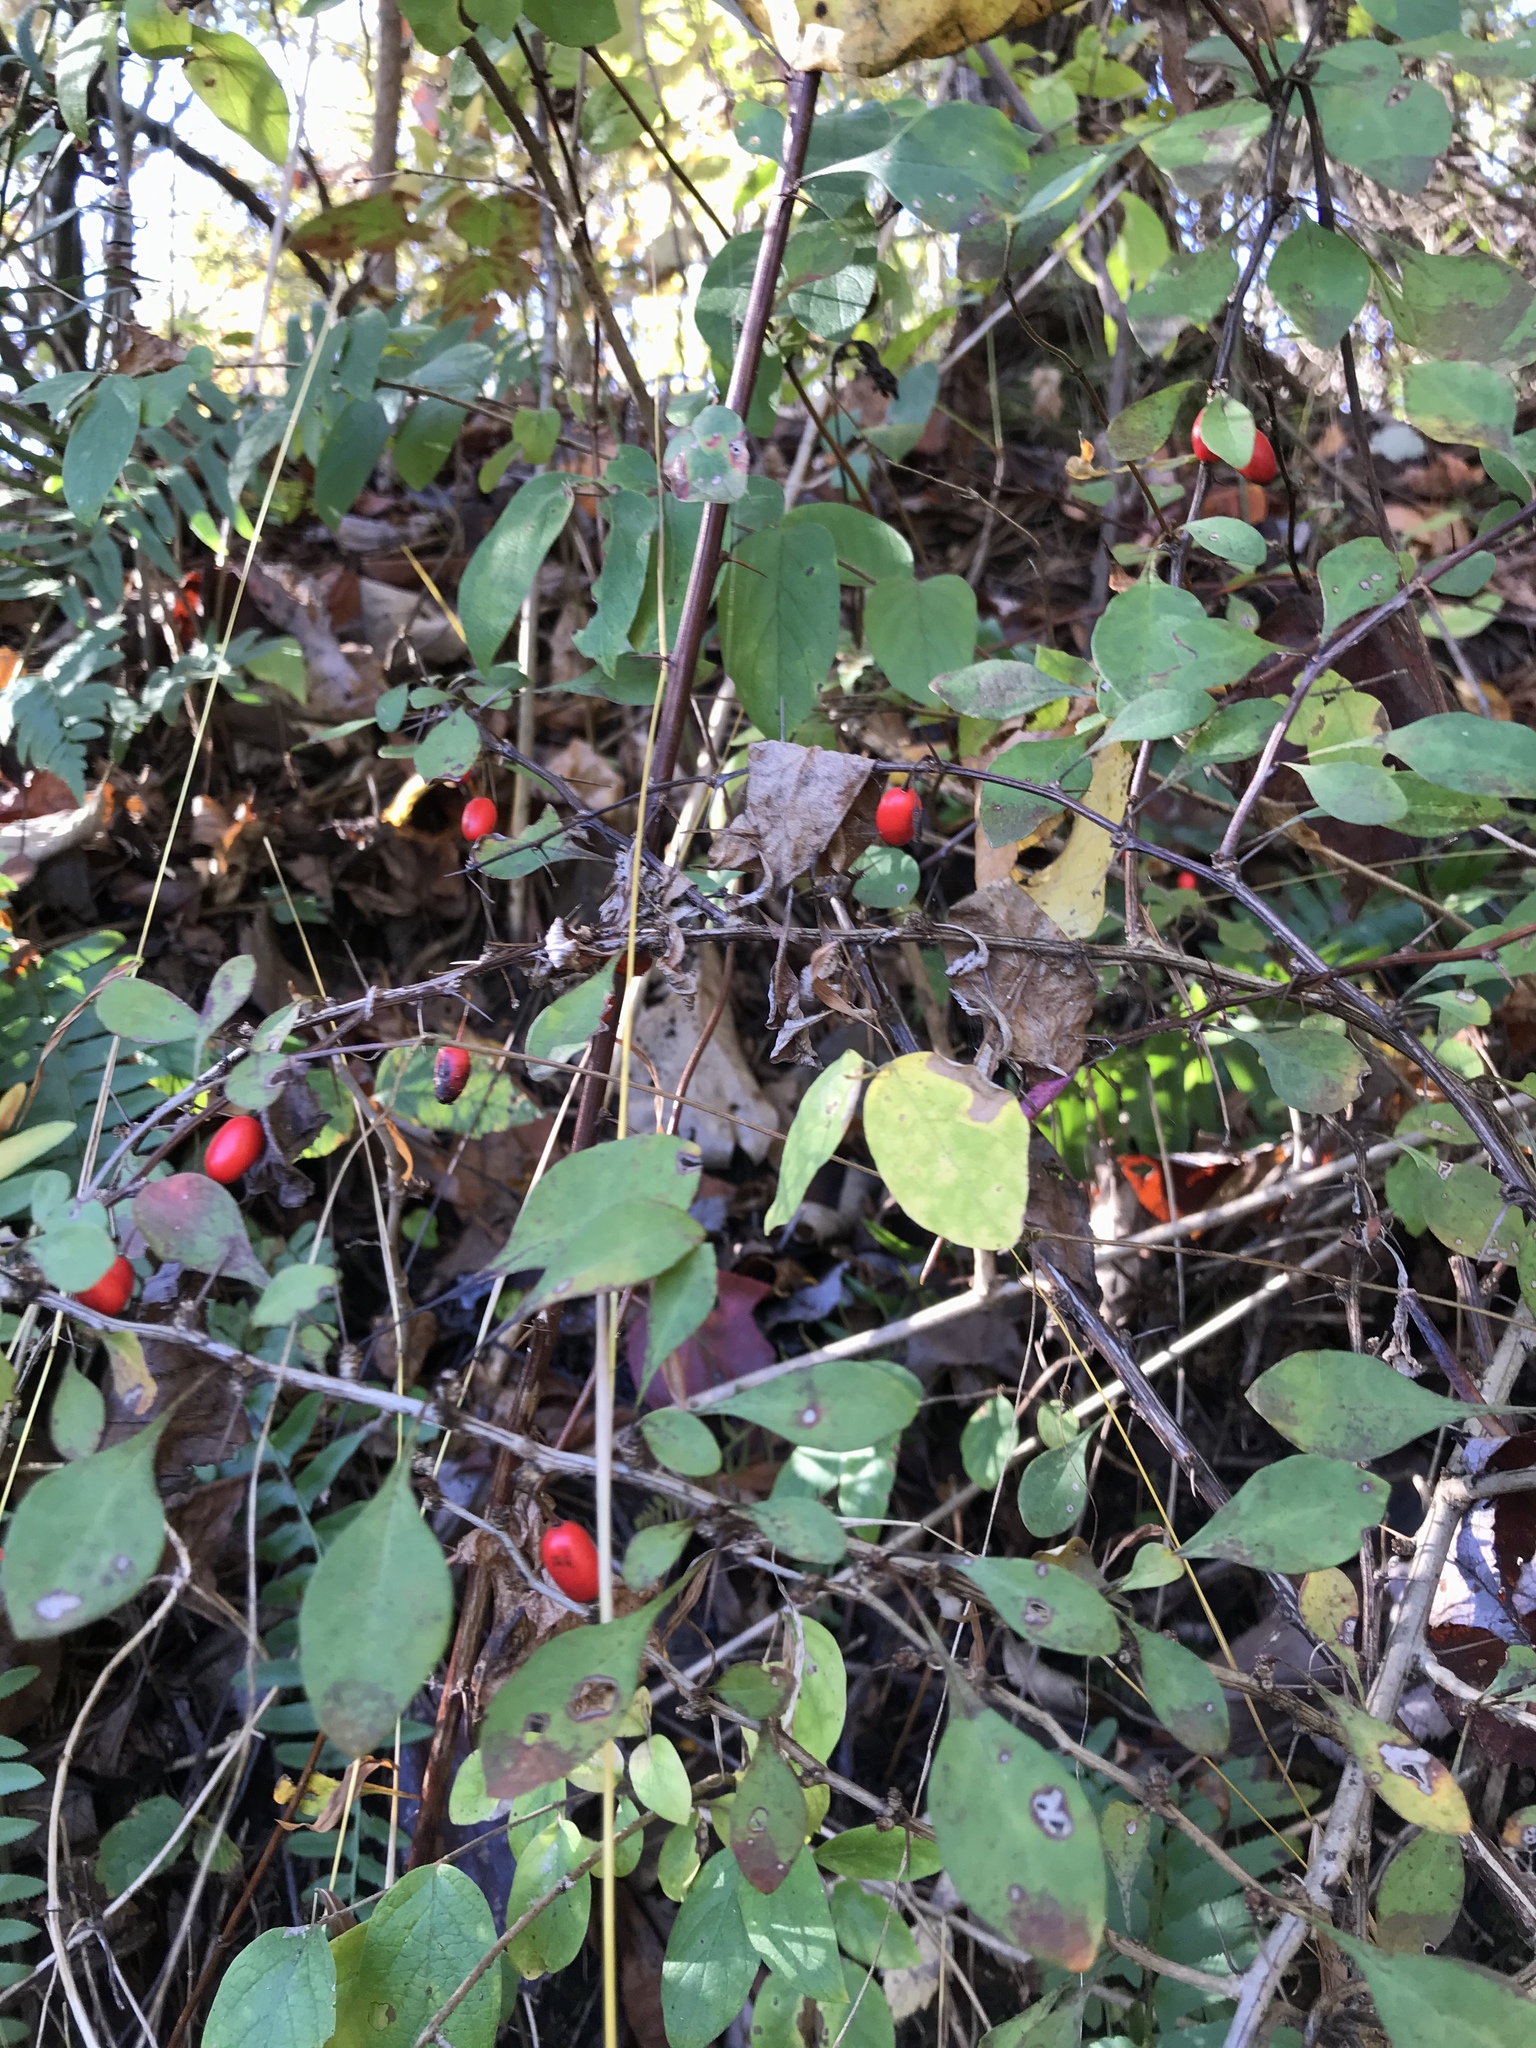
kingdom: Plantae
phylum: Tracheophyta
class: Magnoliopsida
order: Ranunculales
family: Berberidaceae
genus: Berberis
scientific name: Berberis thunbergii
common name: Japanese barberry
